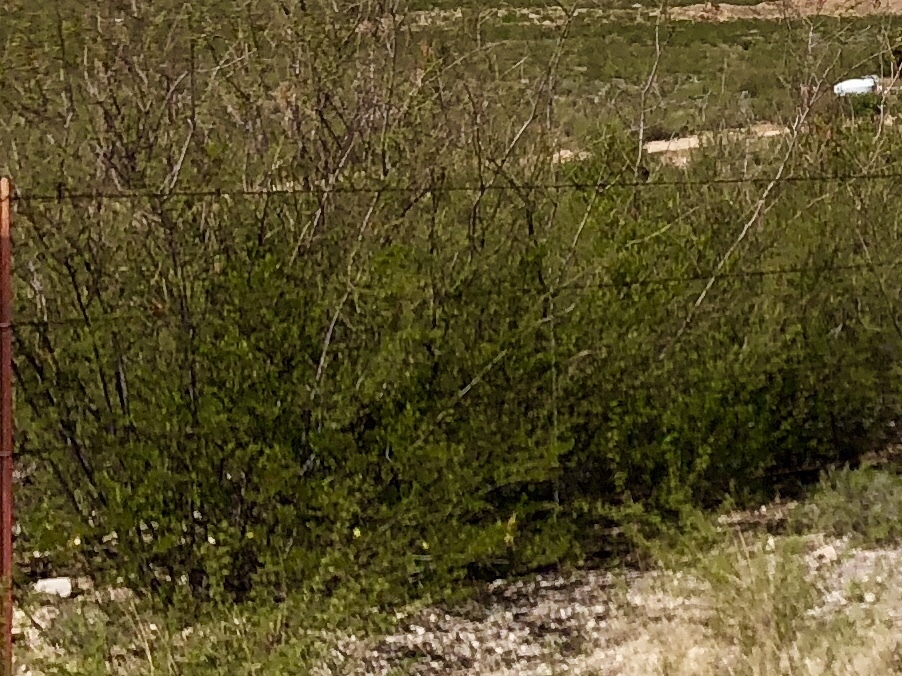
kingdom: Plantae
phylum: Tracheophyta
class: Magnoliopsida
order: Zygophyllales
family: Zygophyllaceae
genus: Larrea
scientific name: Larrea tridentata
